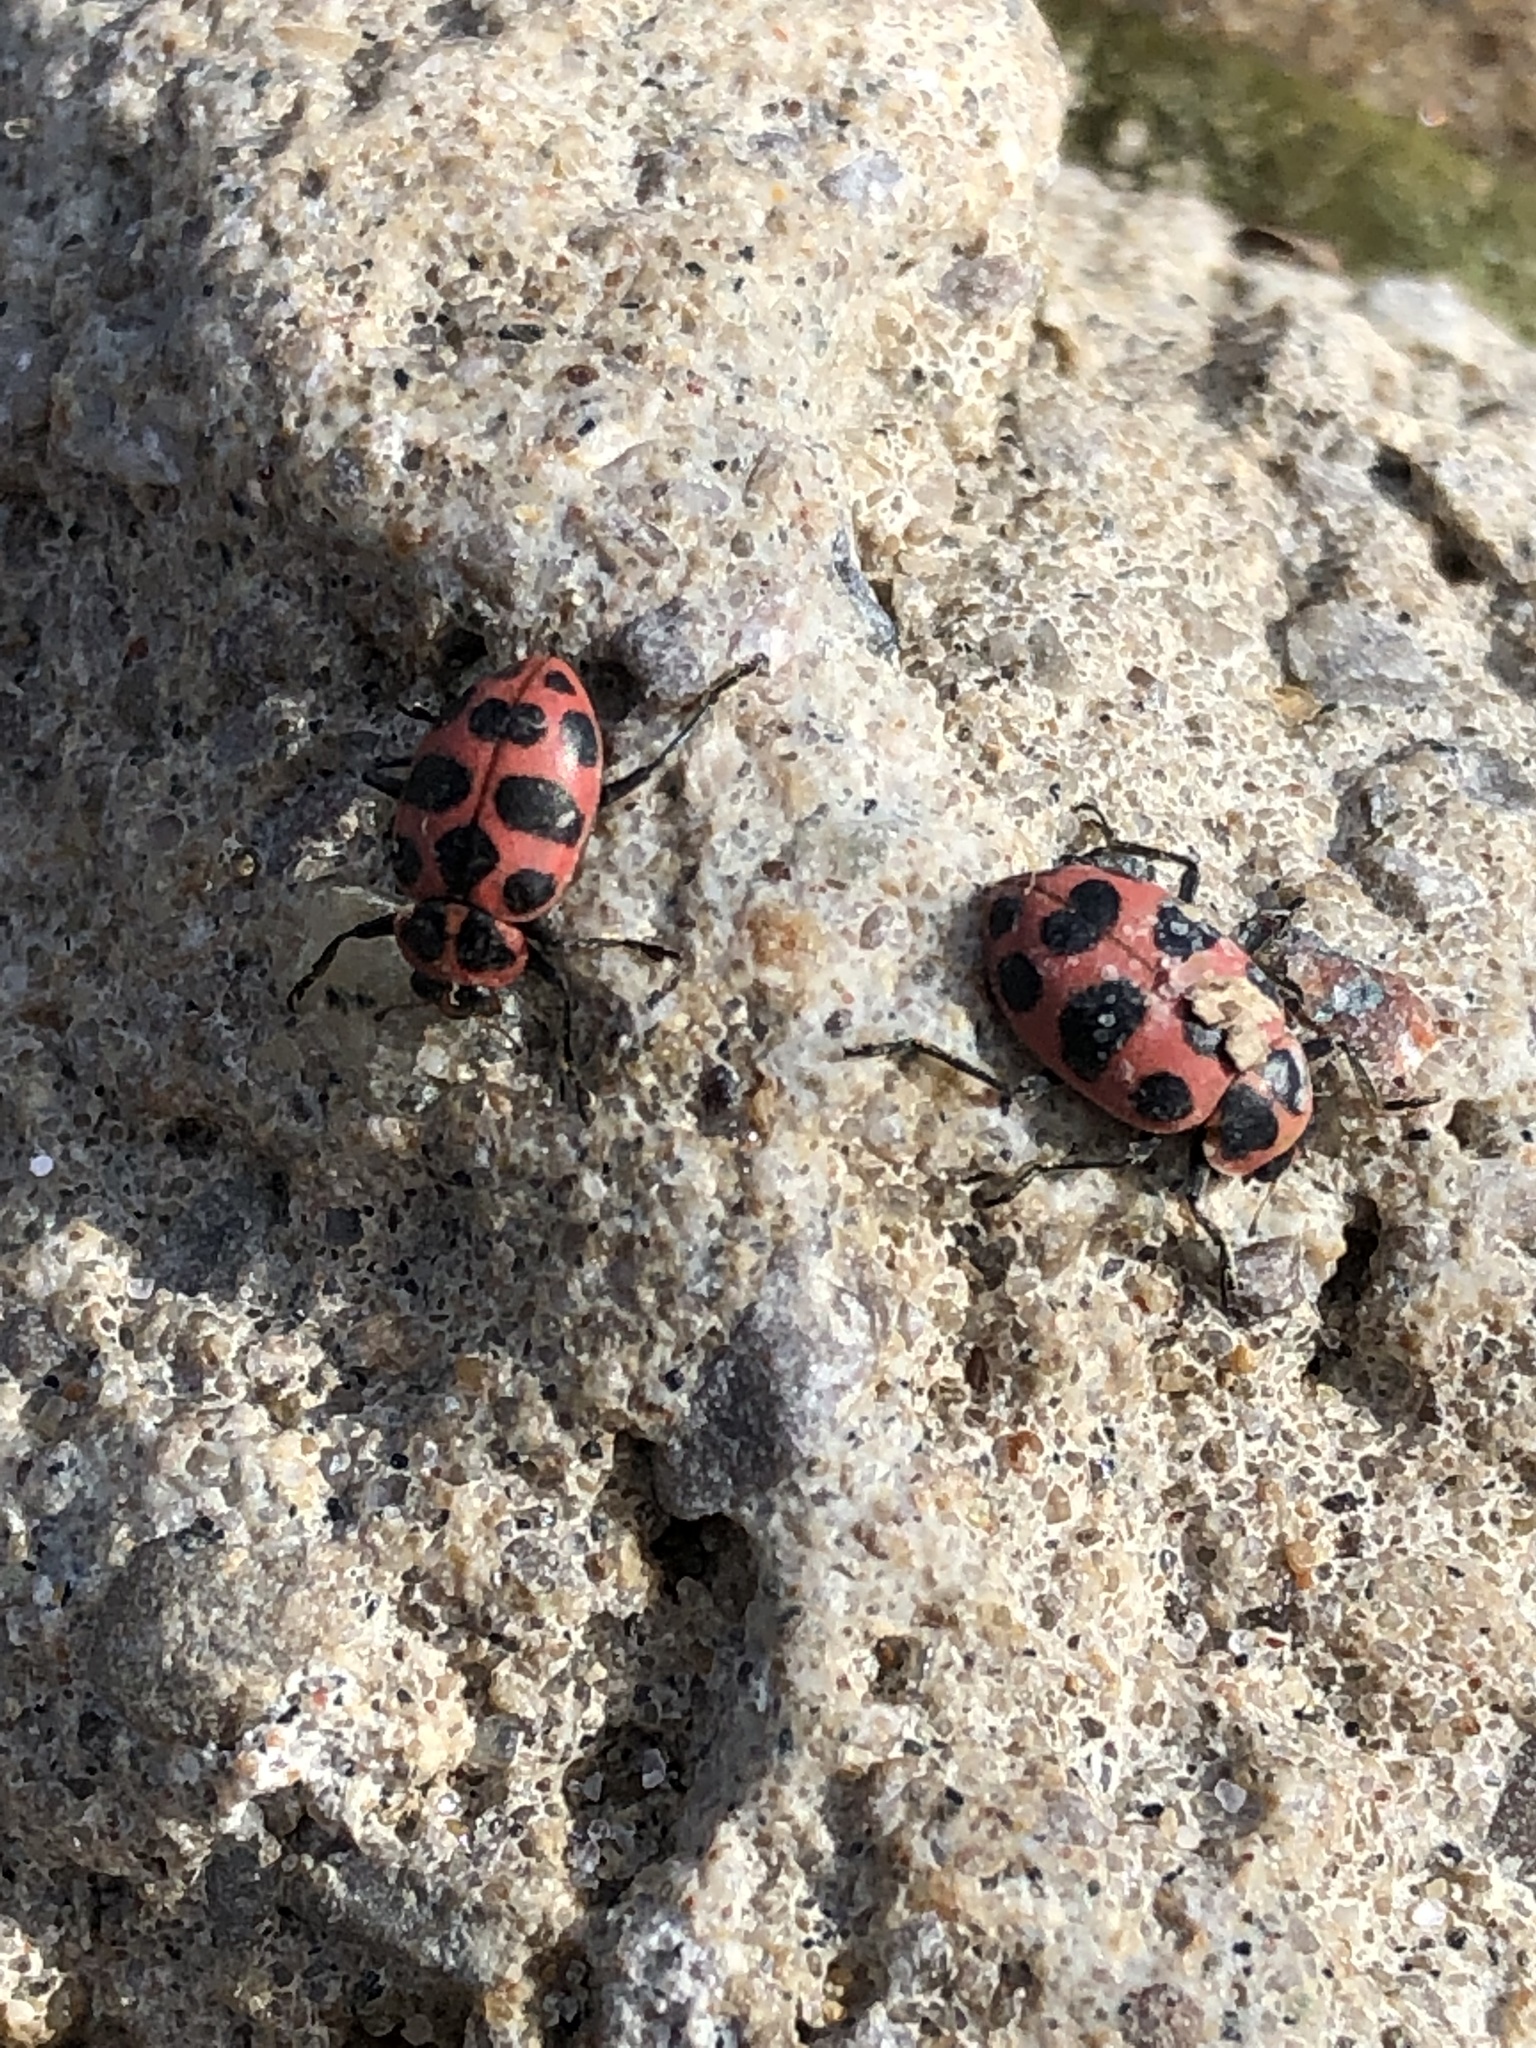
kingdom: Animalia
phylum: Arthropoda
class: Insecta
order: Coleoptera
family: Coccinellidae
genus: Coleomegilla
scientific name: Coleomegilla maculata
